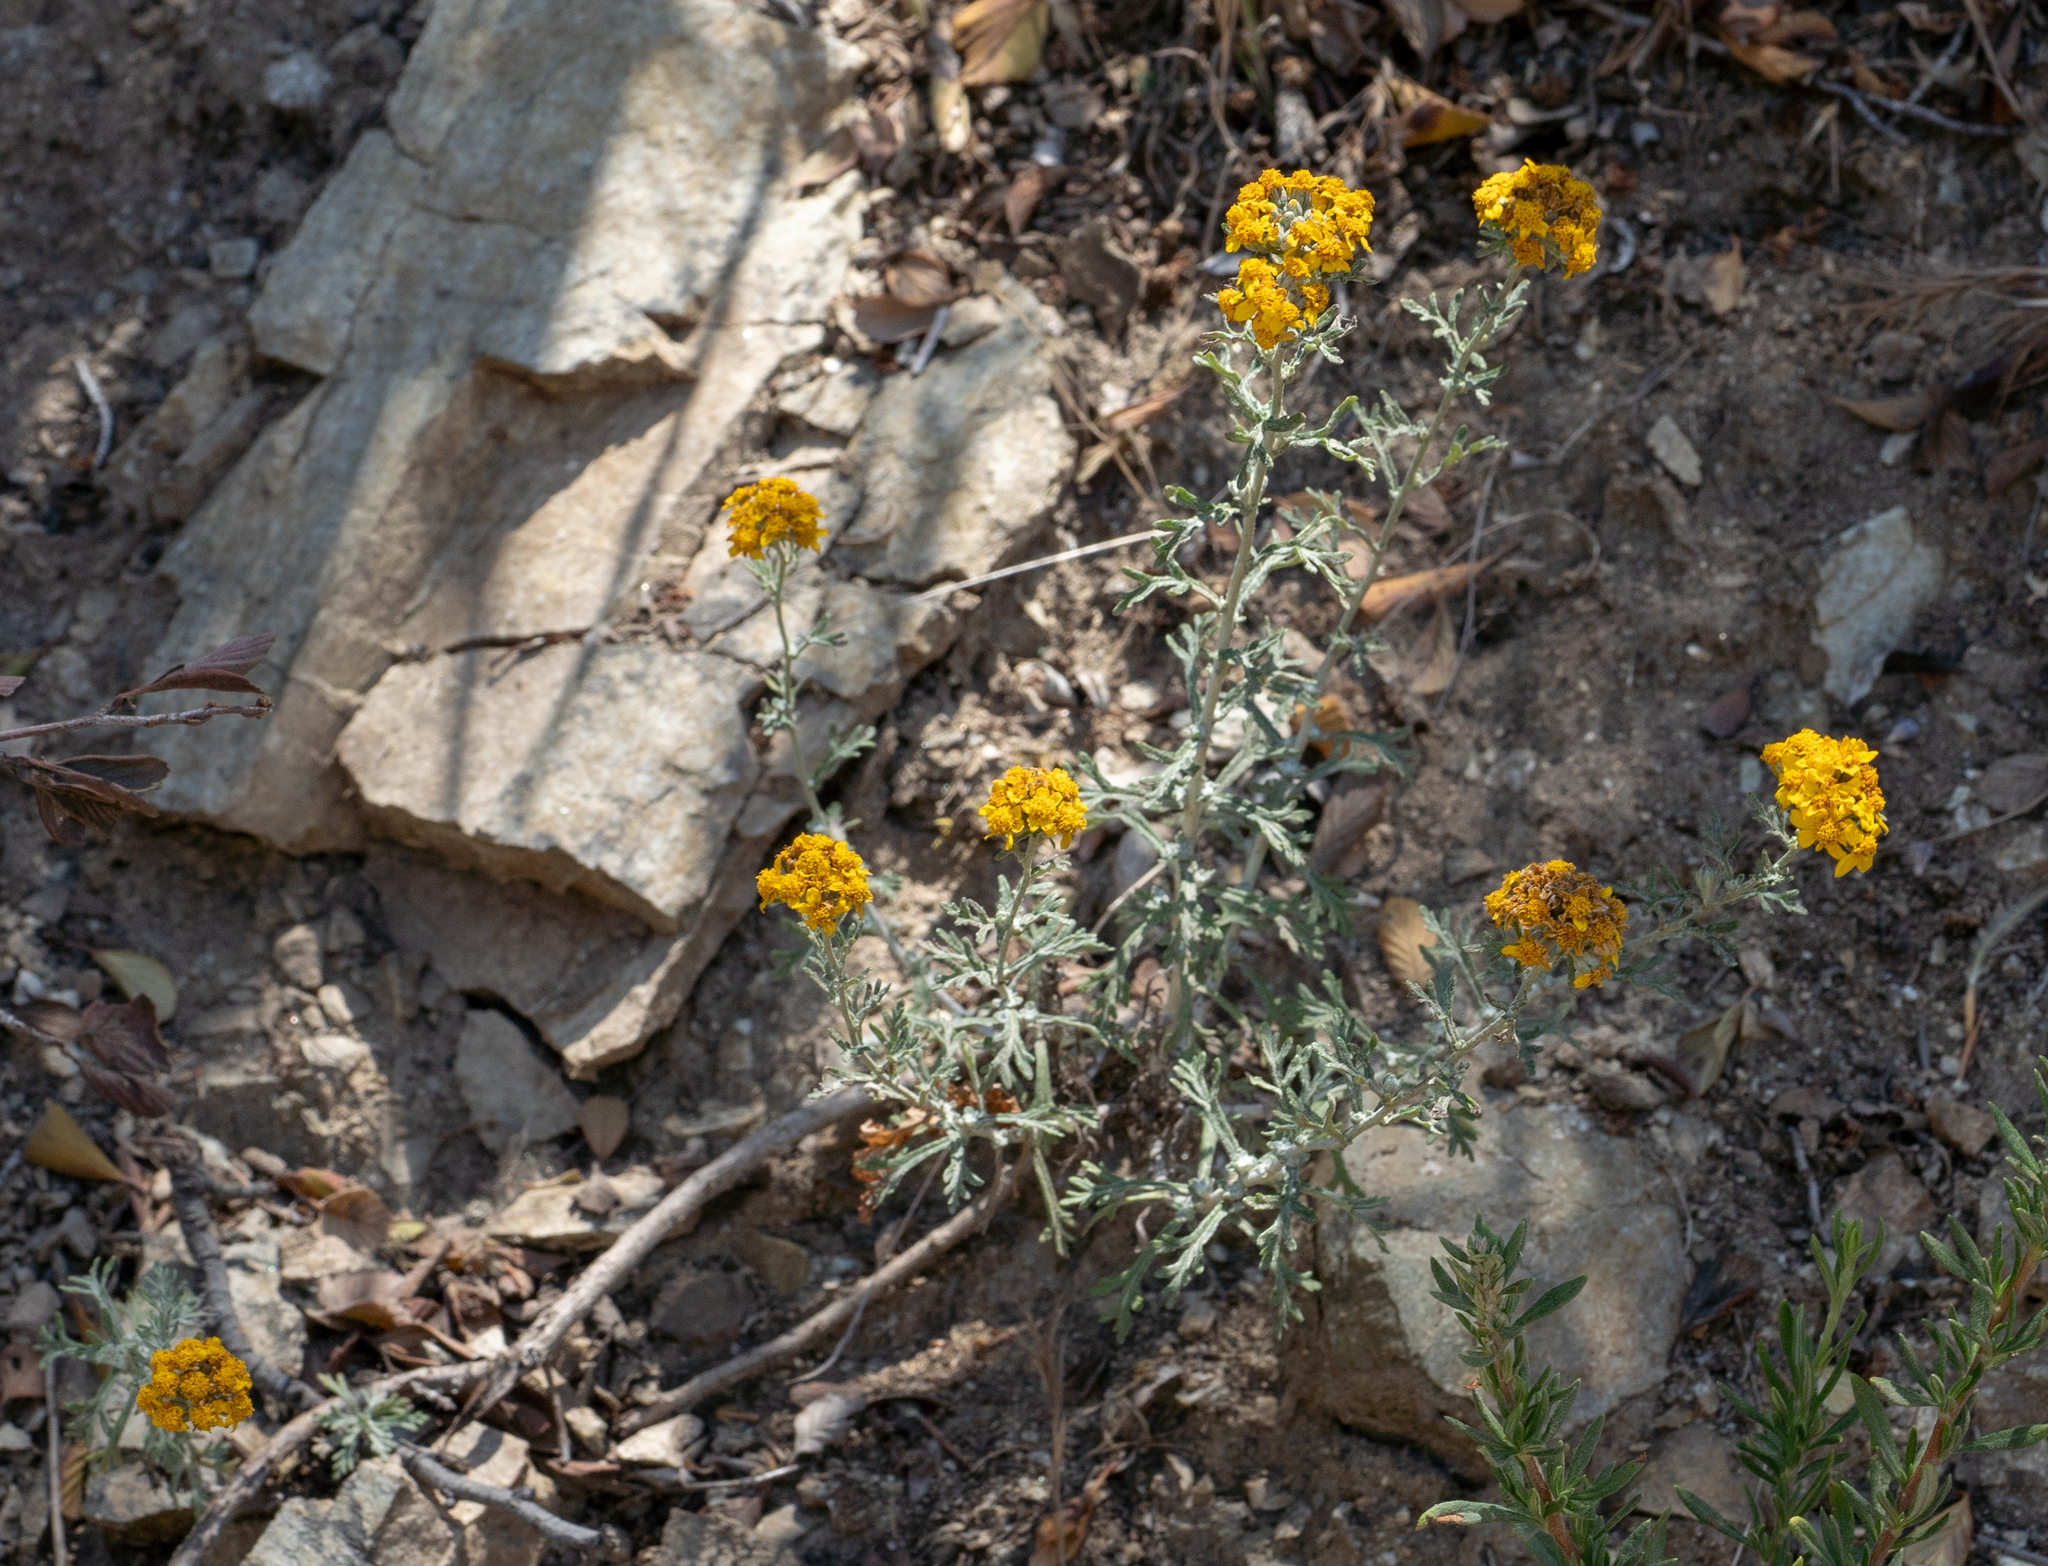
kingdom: Plantae
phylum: Tracheophyta
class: Magnoliopsida
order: Asterales
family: Asteraceae
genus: Eriophyllum
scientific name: Eriophyllum confertiflorum
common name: Golden-yarrow
